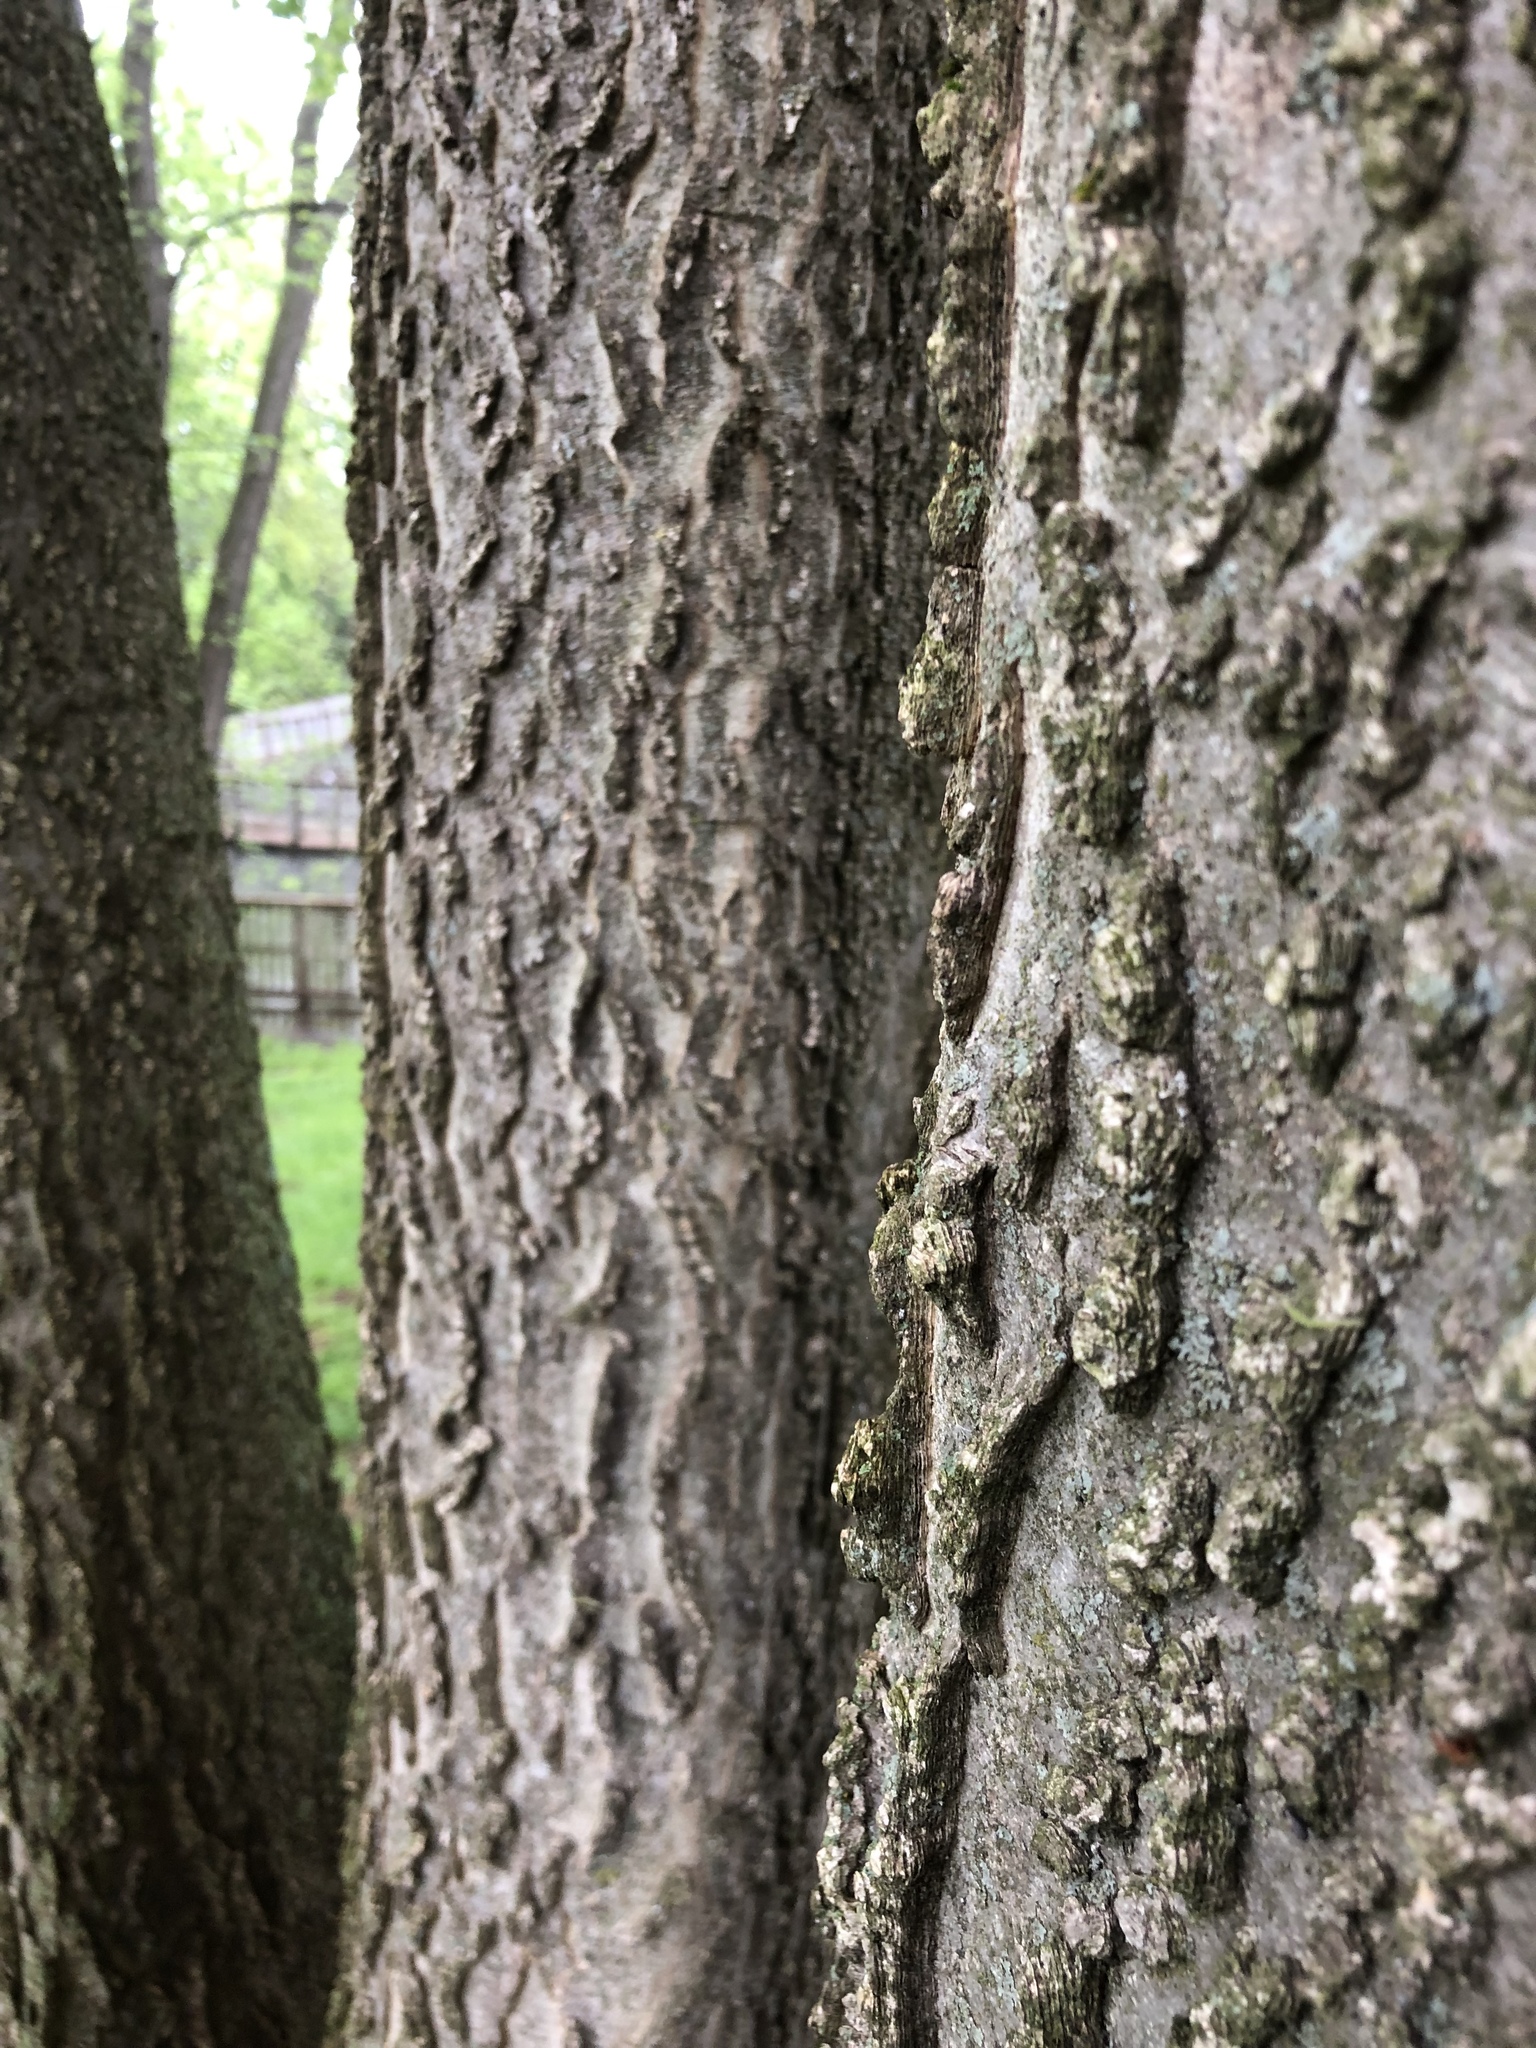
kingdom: Plantae
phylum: Tracheophyta
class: Magnoliopsida
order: Rosales
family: Cannabaceae
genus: Celtis
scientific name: Celtis occidentalis
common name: Common hackberry
